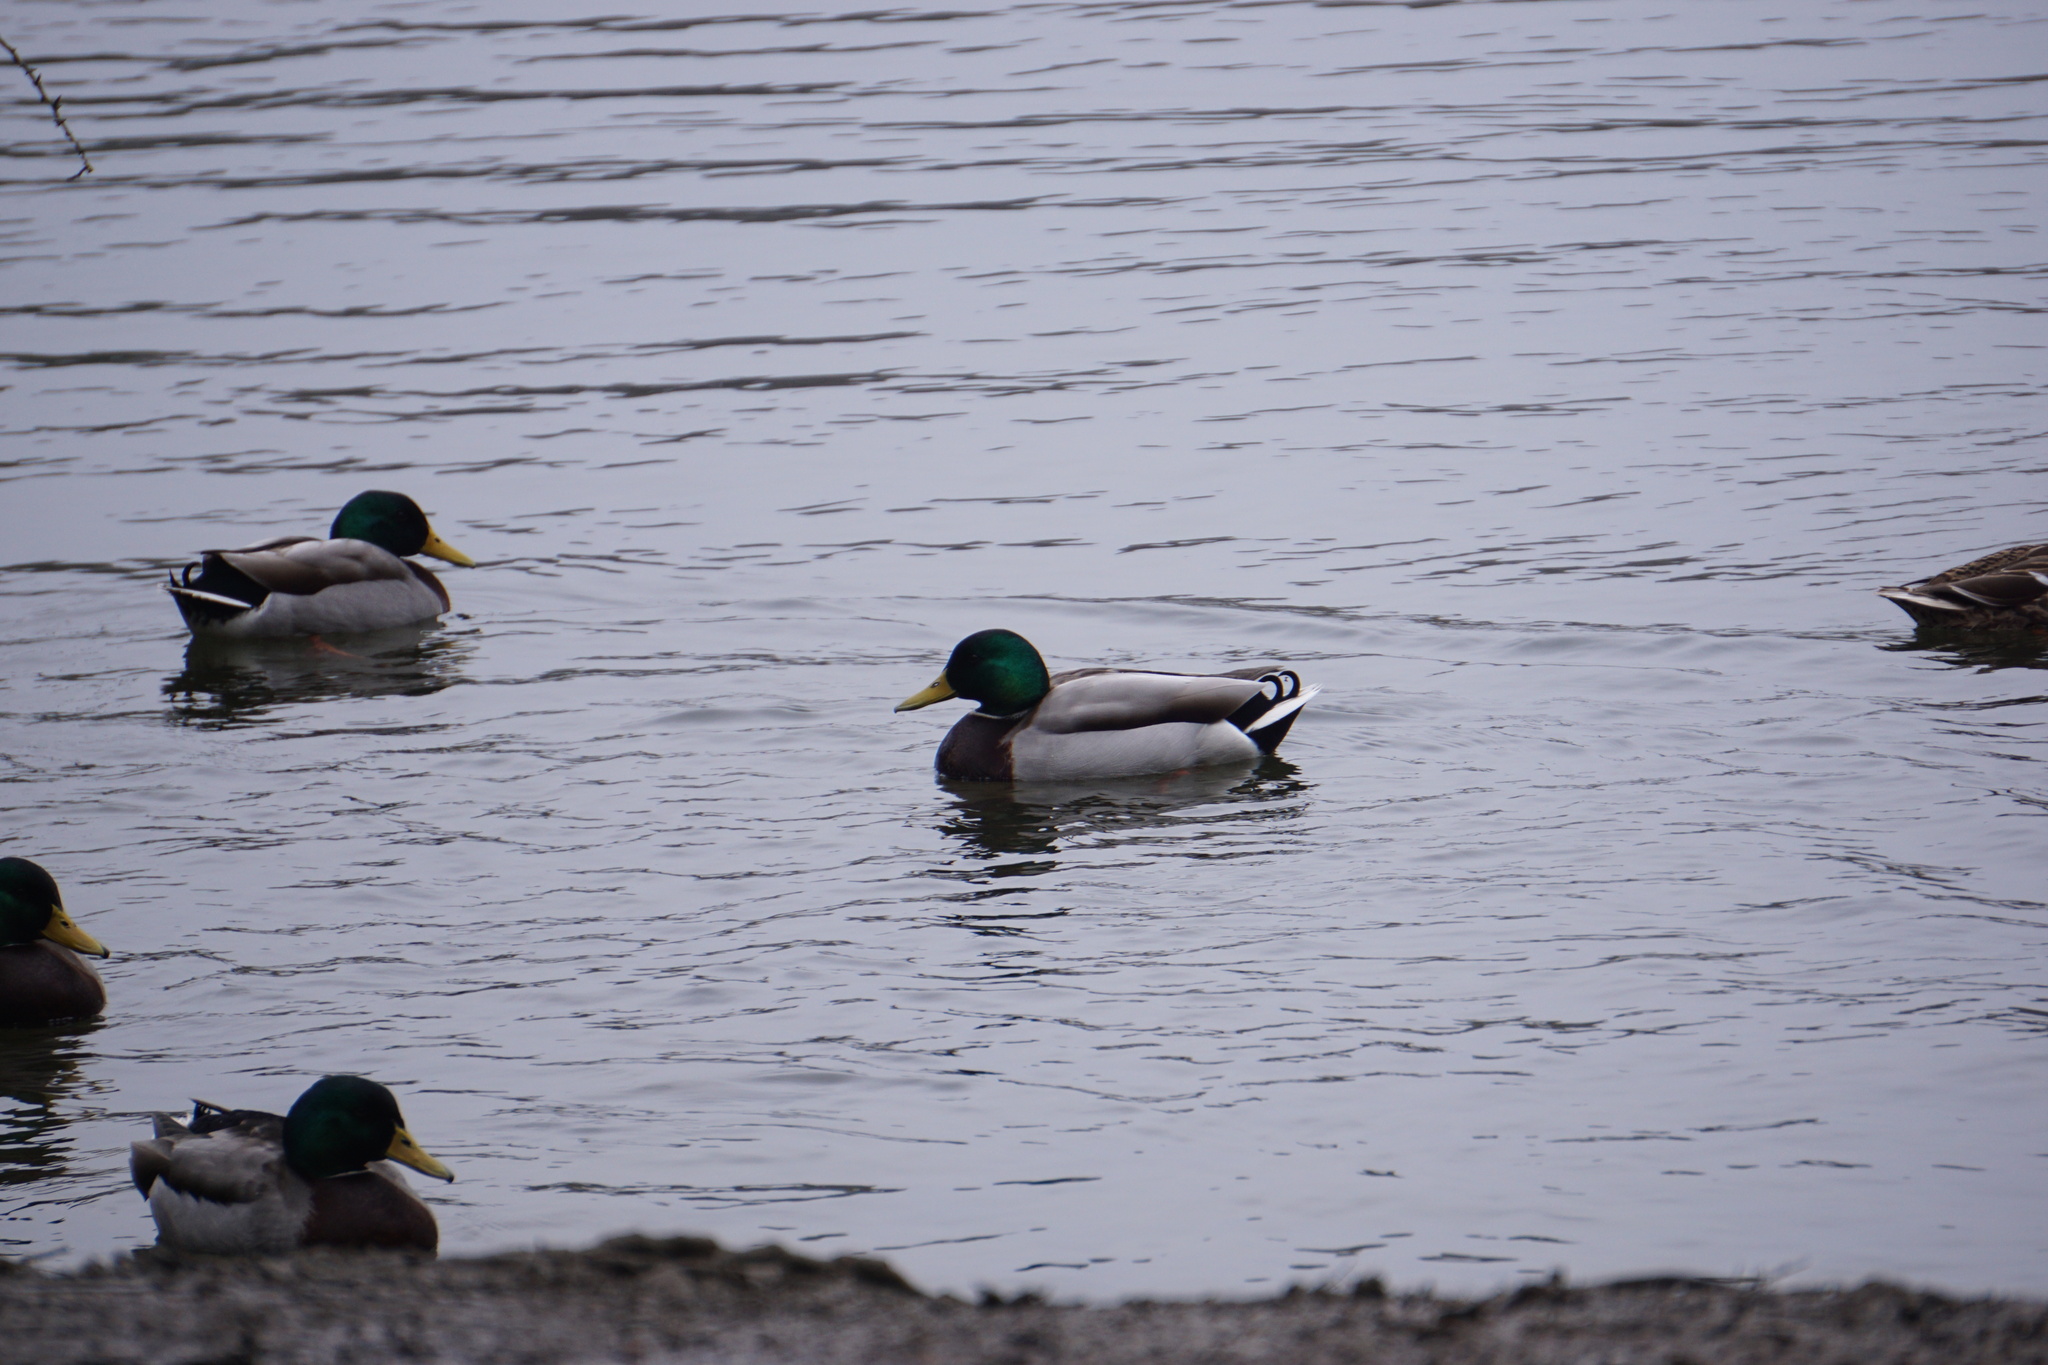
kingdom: Animalia
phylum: Chordata
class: Aves
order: Anseriformes
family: Anatidae
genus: Anas
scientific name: Anas platyrhynchos
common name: Mallard
